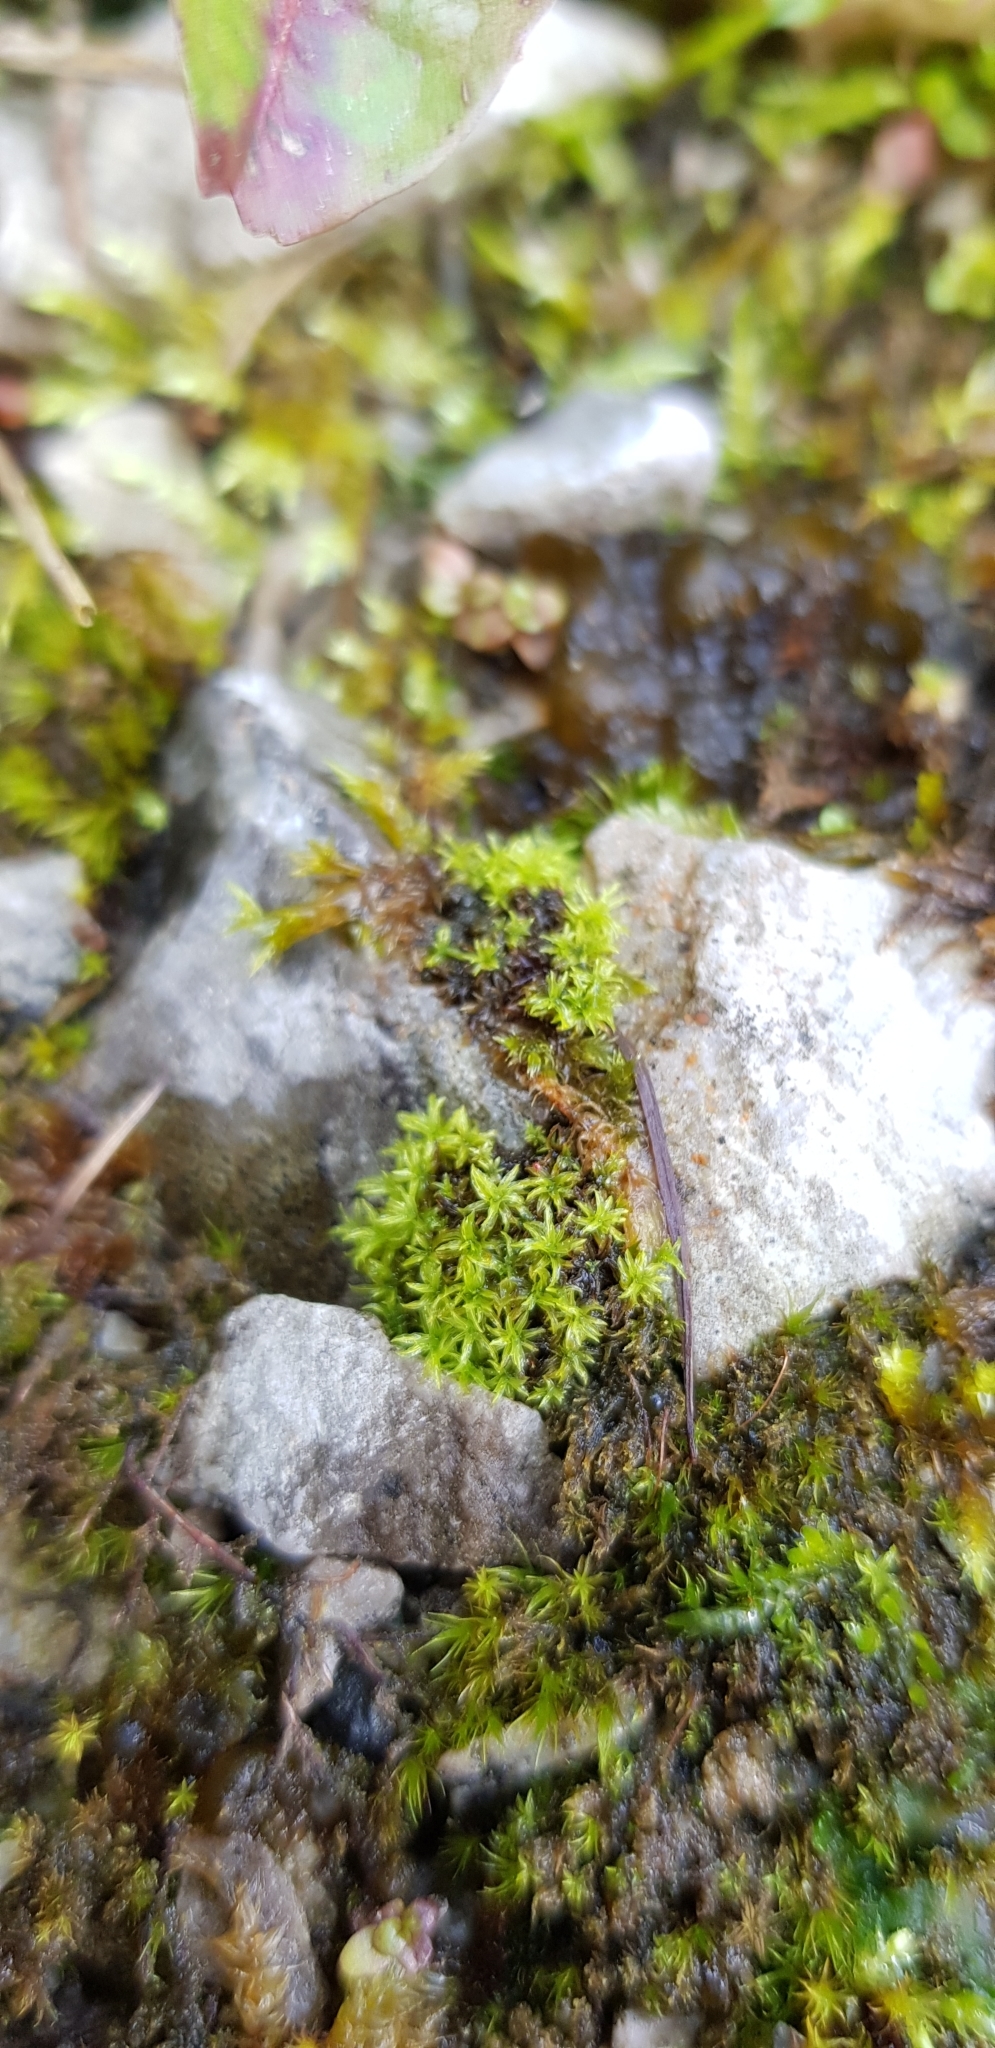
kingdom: Plantae
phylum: Bryophyta
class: Bryopsida
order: Pottiales
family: Pottiaceae
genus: Streblotrichum
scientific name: Streblotrichum convolutum
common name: Lesser bird's-claw beard-moss
